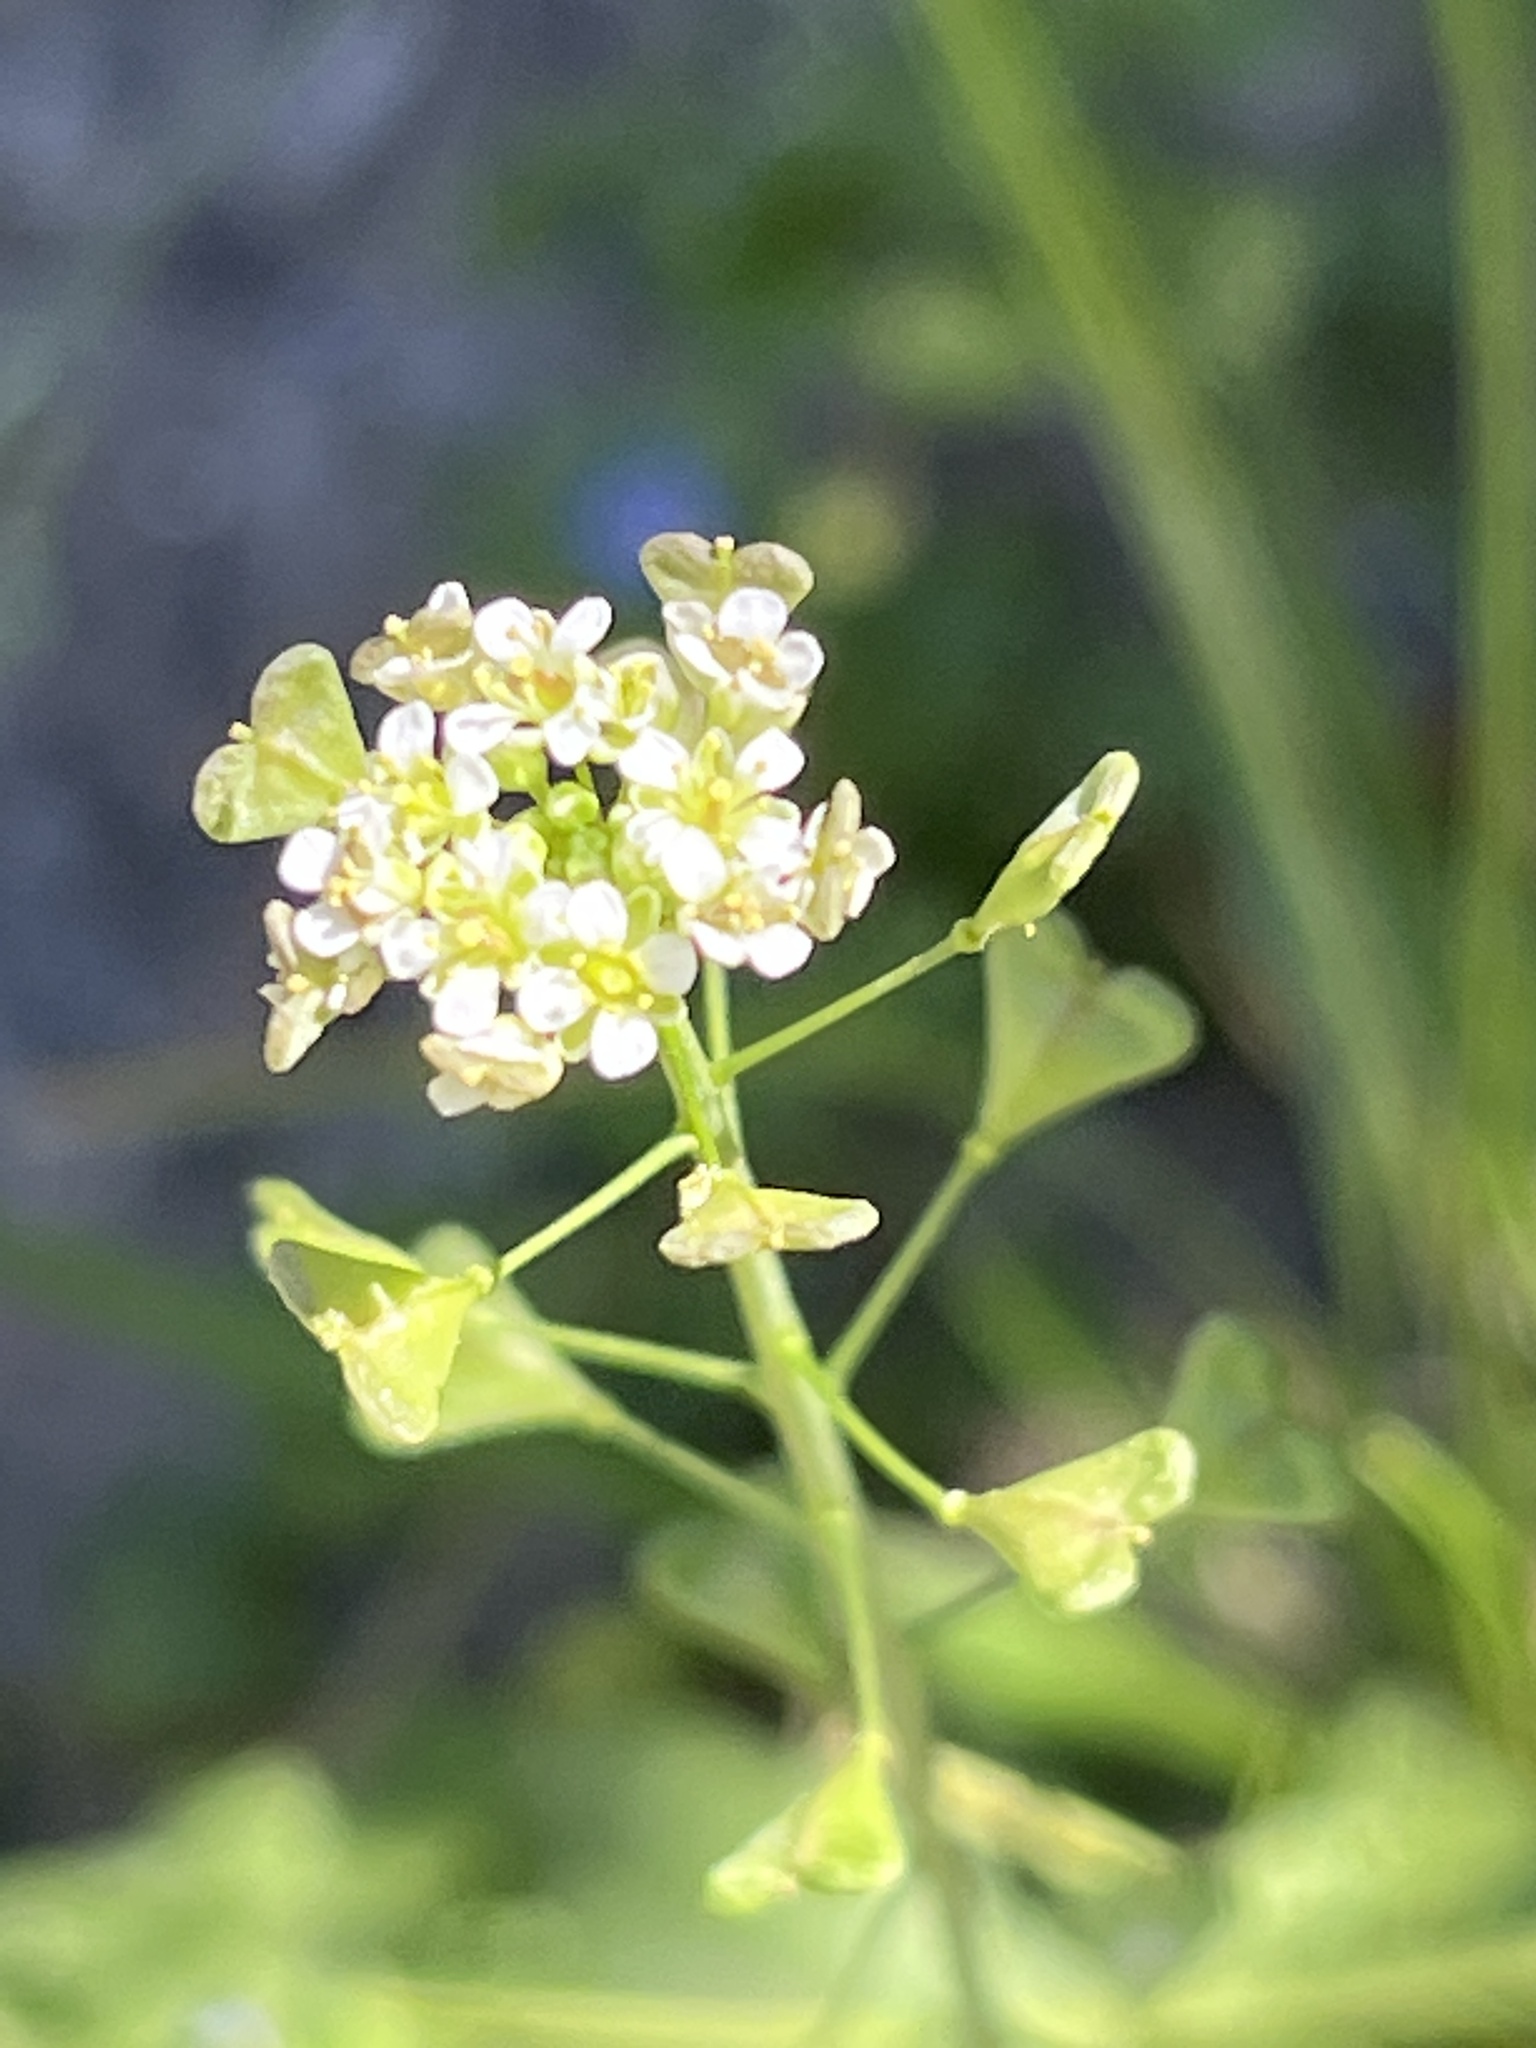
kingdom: Plantae
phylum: Tracheophyta
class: Magnoliopsida
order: Brassicales
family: Brassicaceae
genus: Capsella
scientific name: Capsella bursa-pastoris
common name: Shepherd's purse
